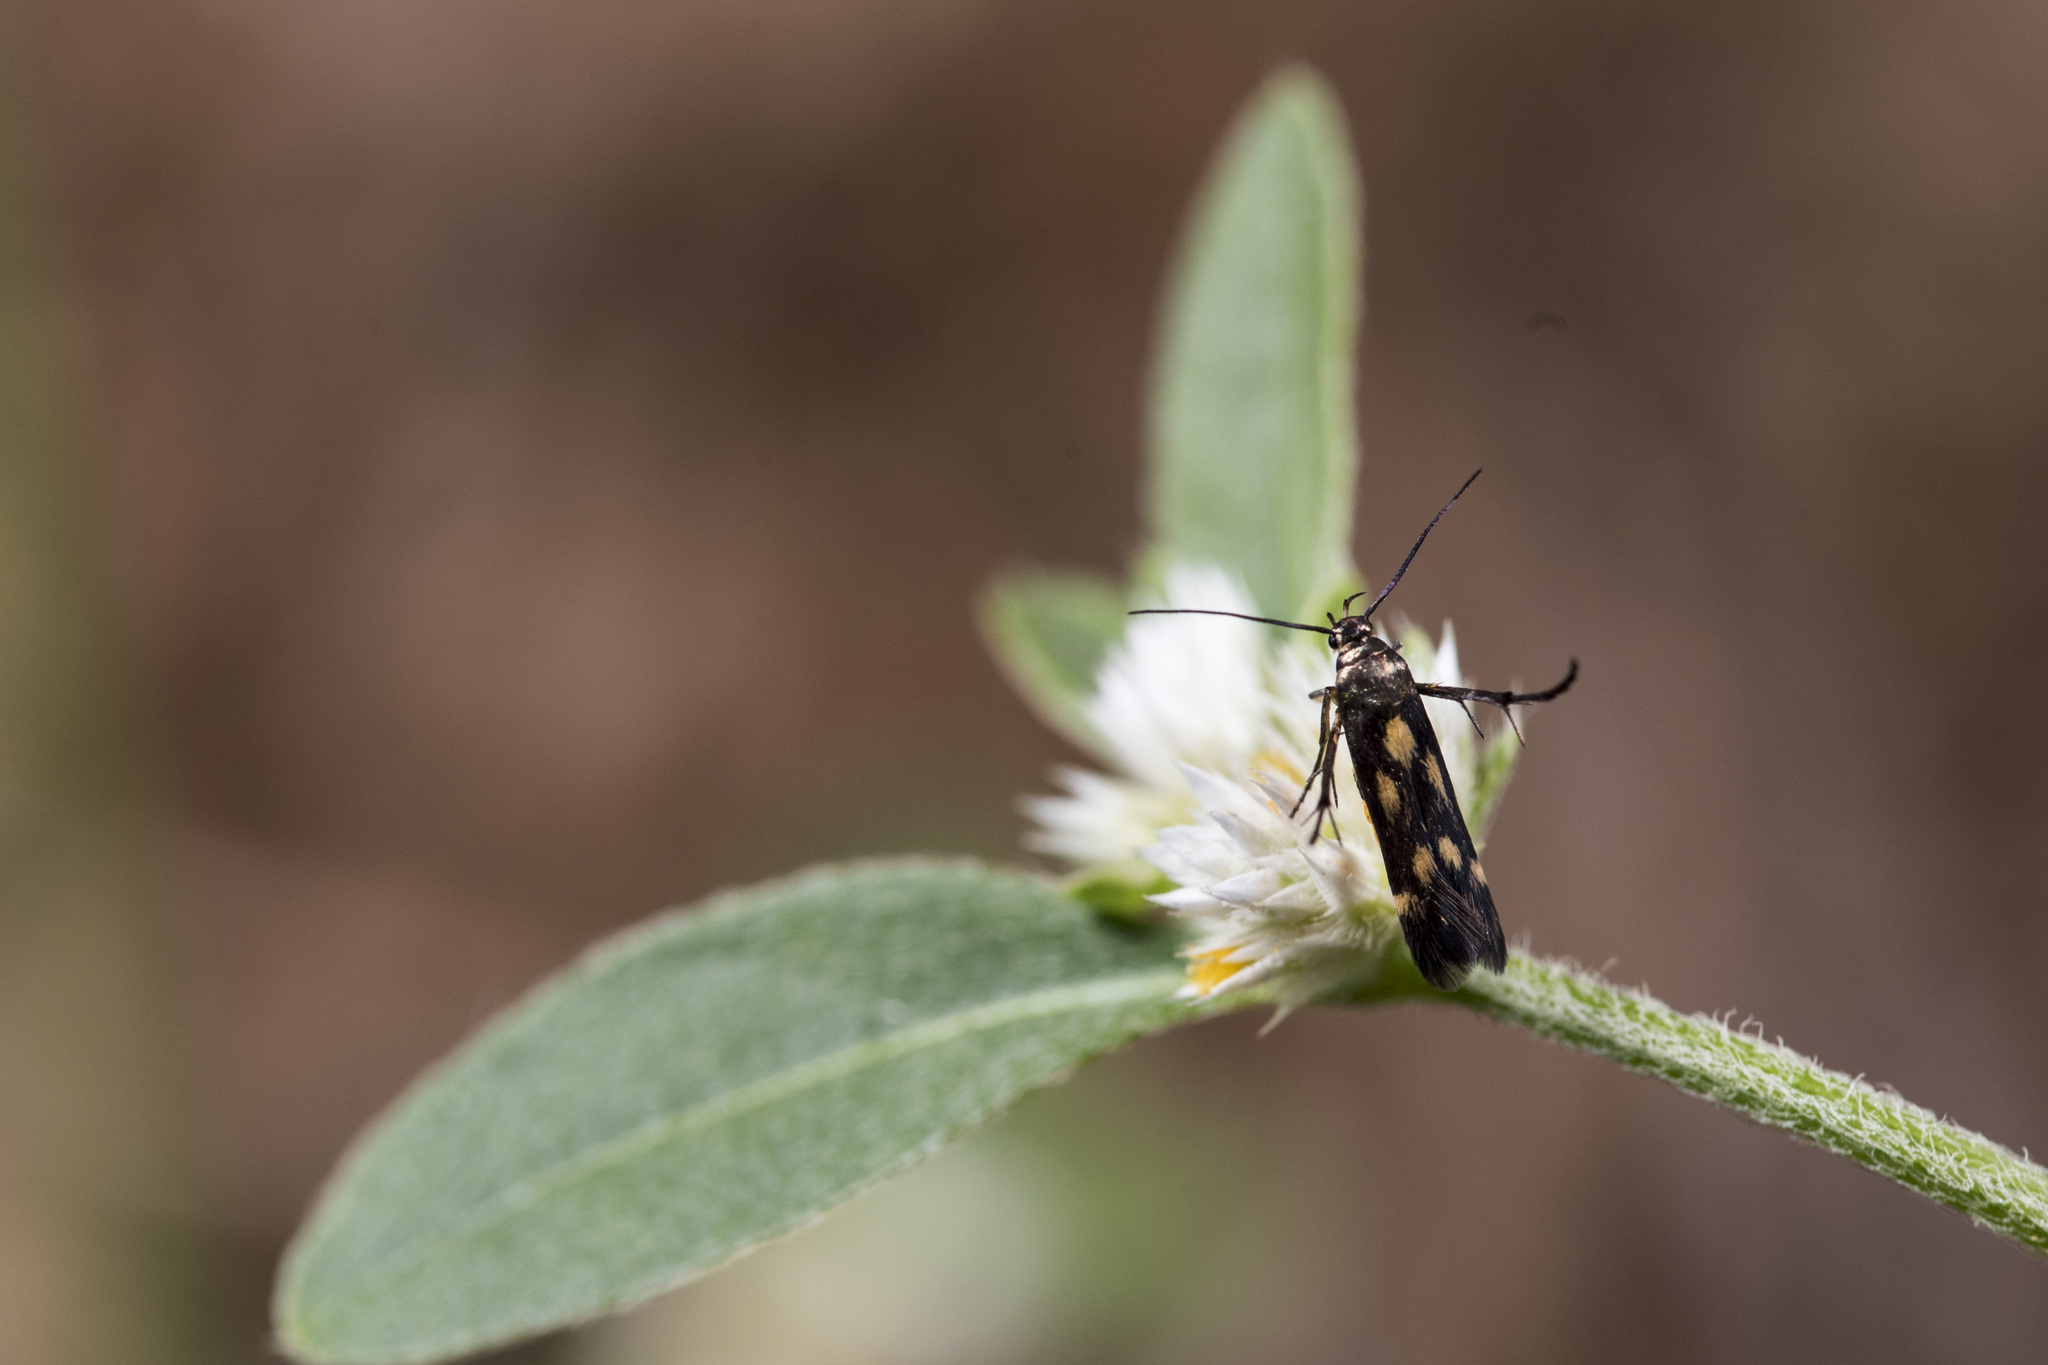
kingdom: Animalia
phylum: Arthropoda
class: Insecta
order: Lepidoptera
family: Scythrididae
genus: Eretmocera
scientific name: Eretmocera impactella
